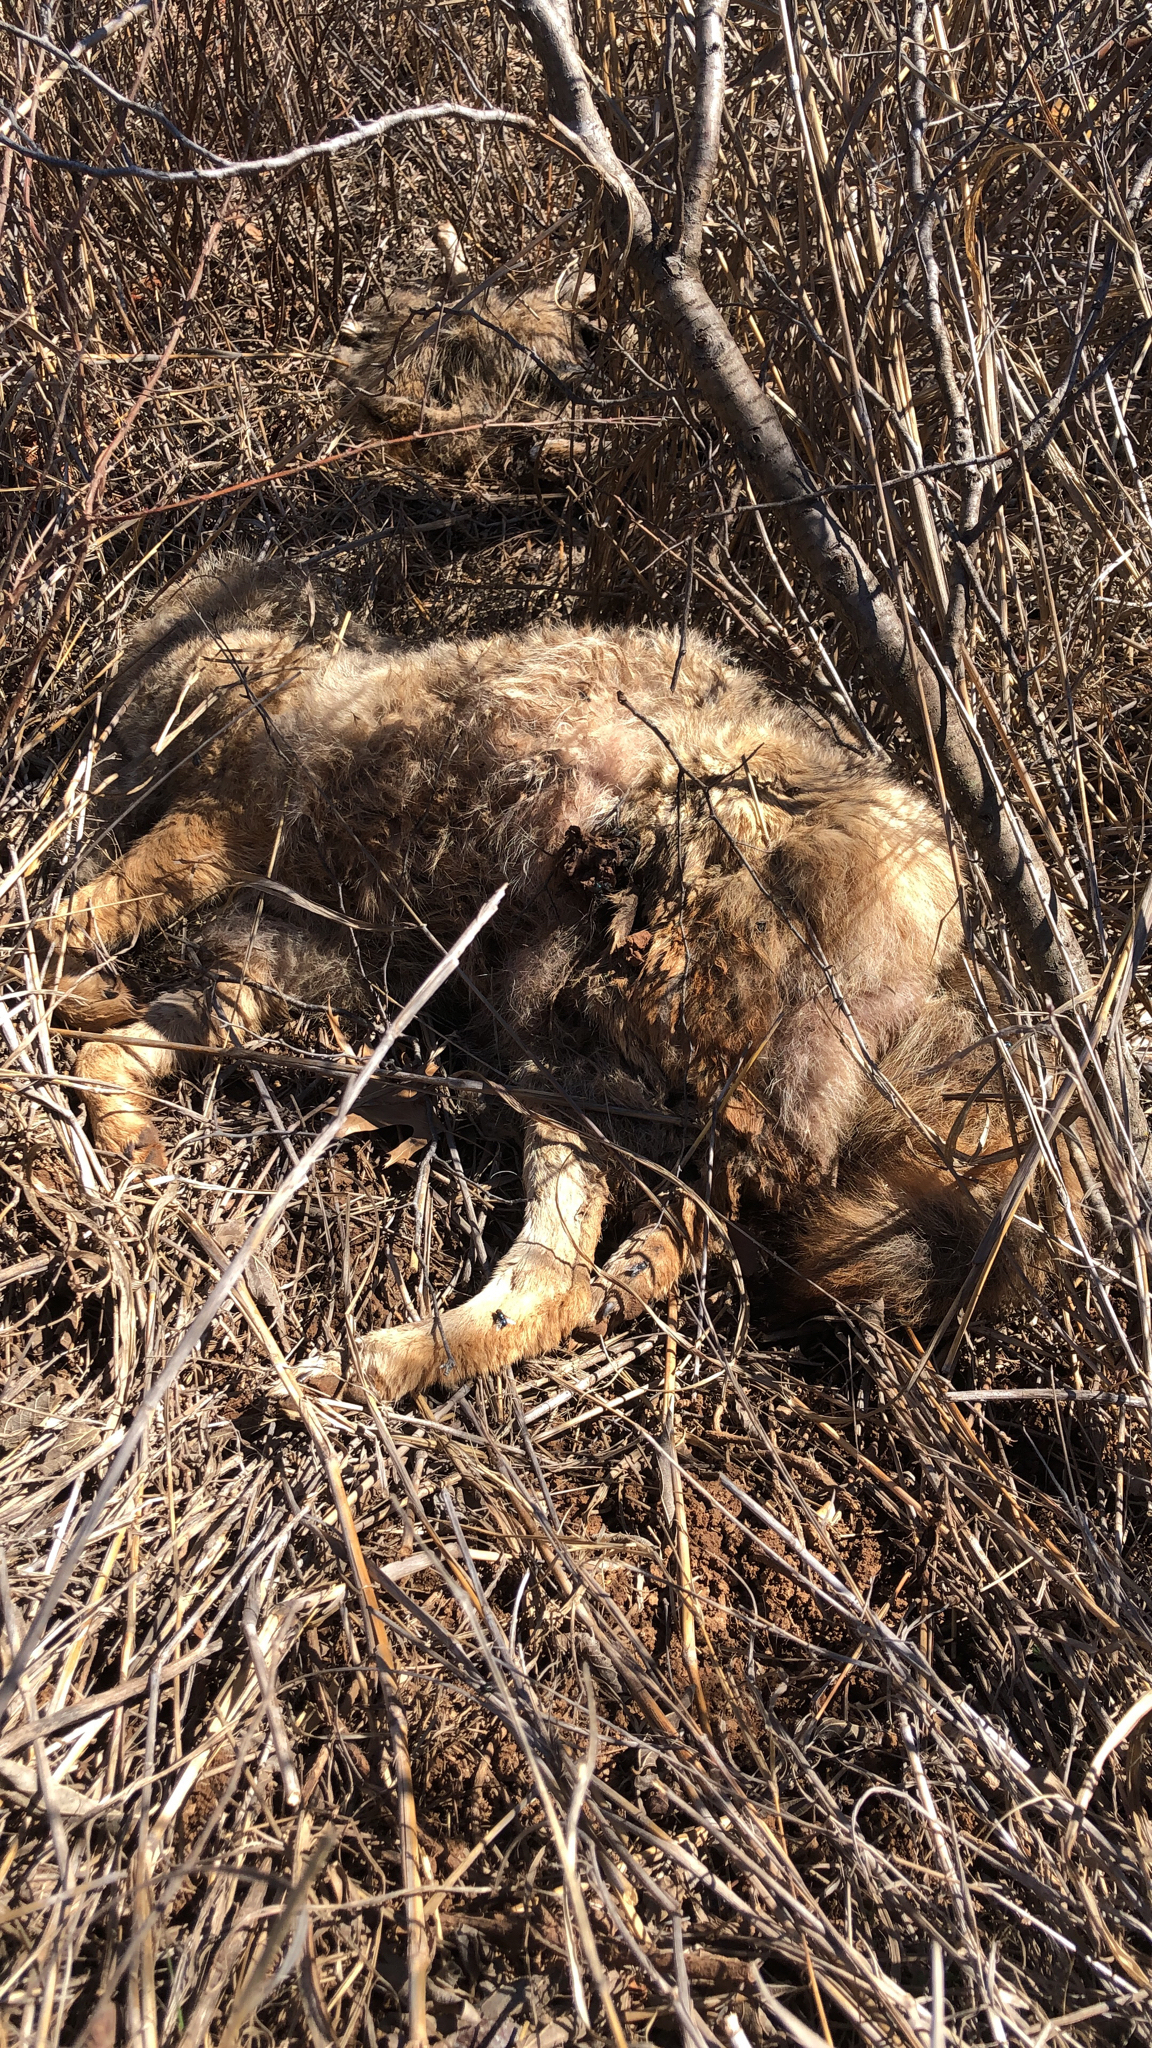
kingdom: Animalia
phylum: Chordata
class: Mammalia
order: Carnivora
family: Canidae
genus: Canis
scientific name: Canis latrans
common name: Coyote
